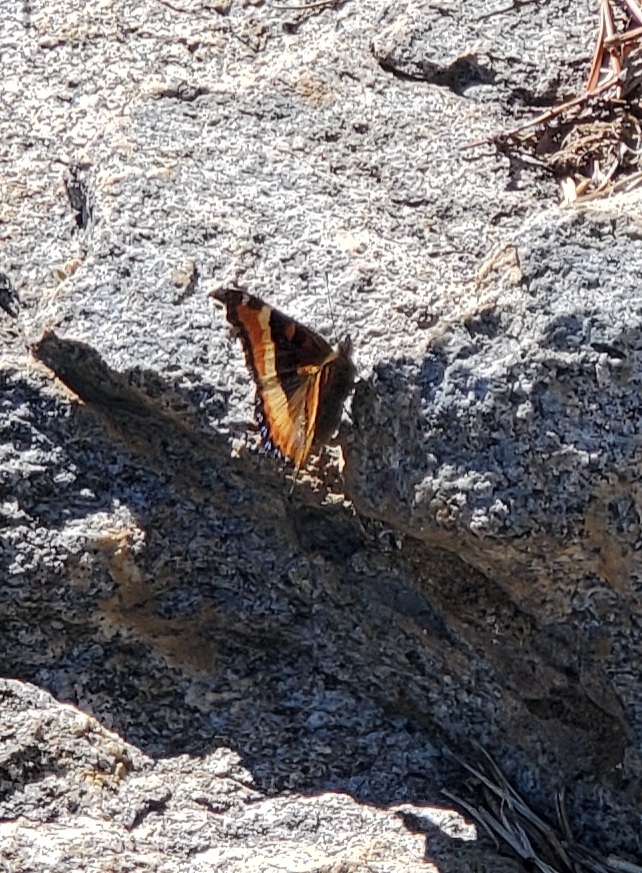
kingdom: Animalia
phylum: Arthropoda
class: Insecta
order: Lepidoptera
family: Nymphalidae
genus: Aglais
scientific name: Aglais milberti
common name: Milbert's tortoiseshell
